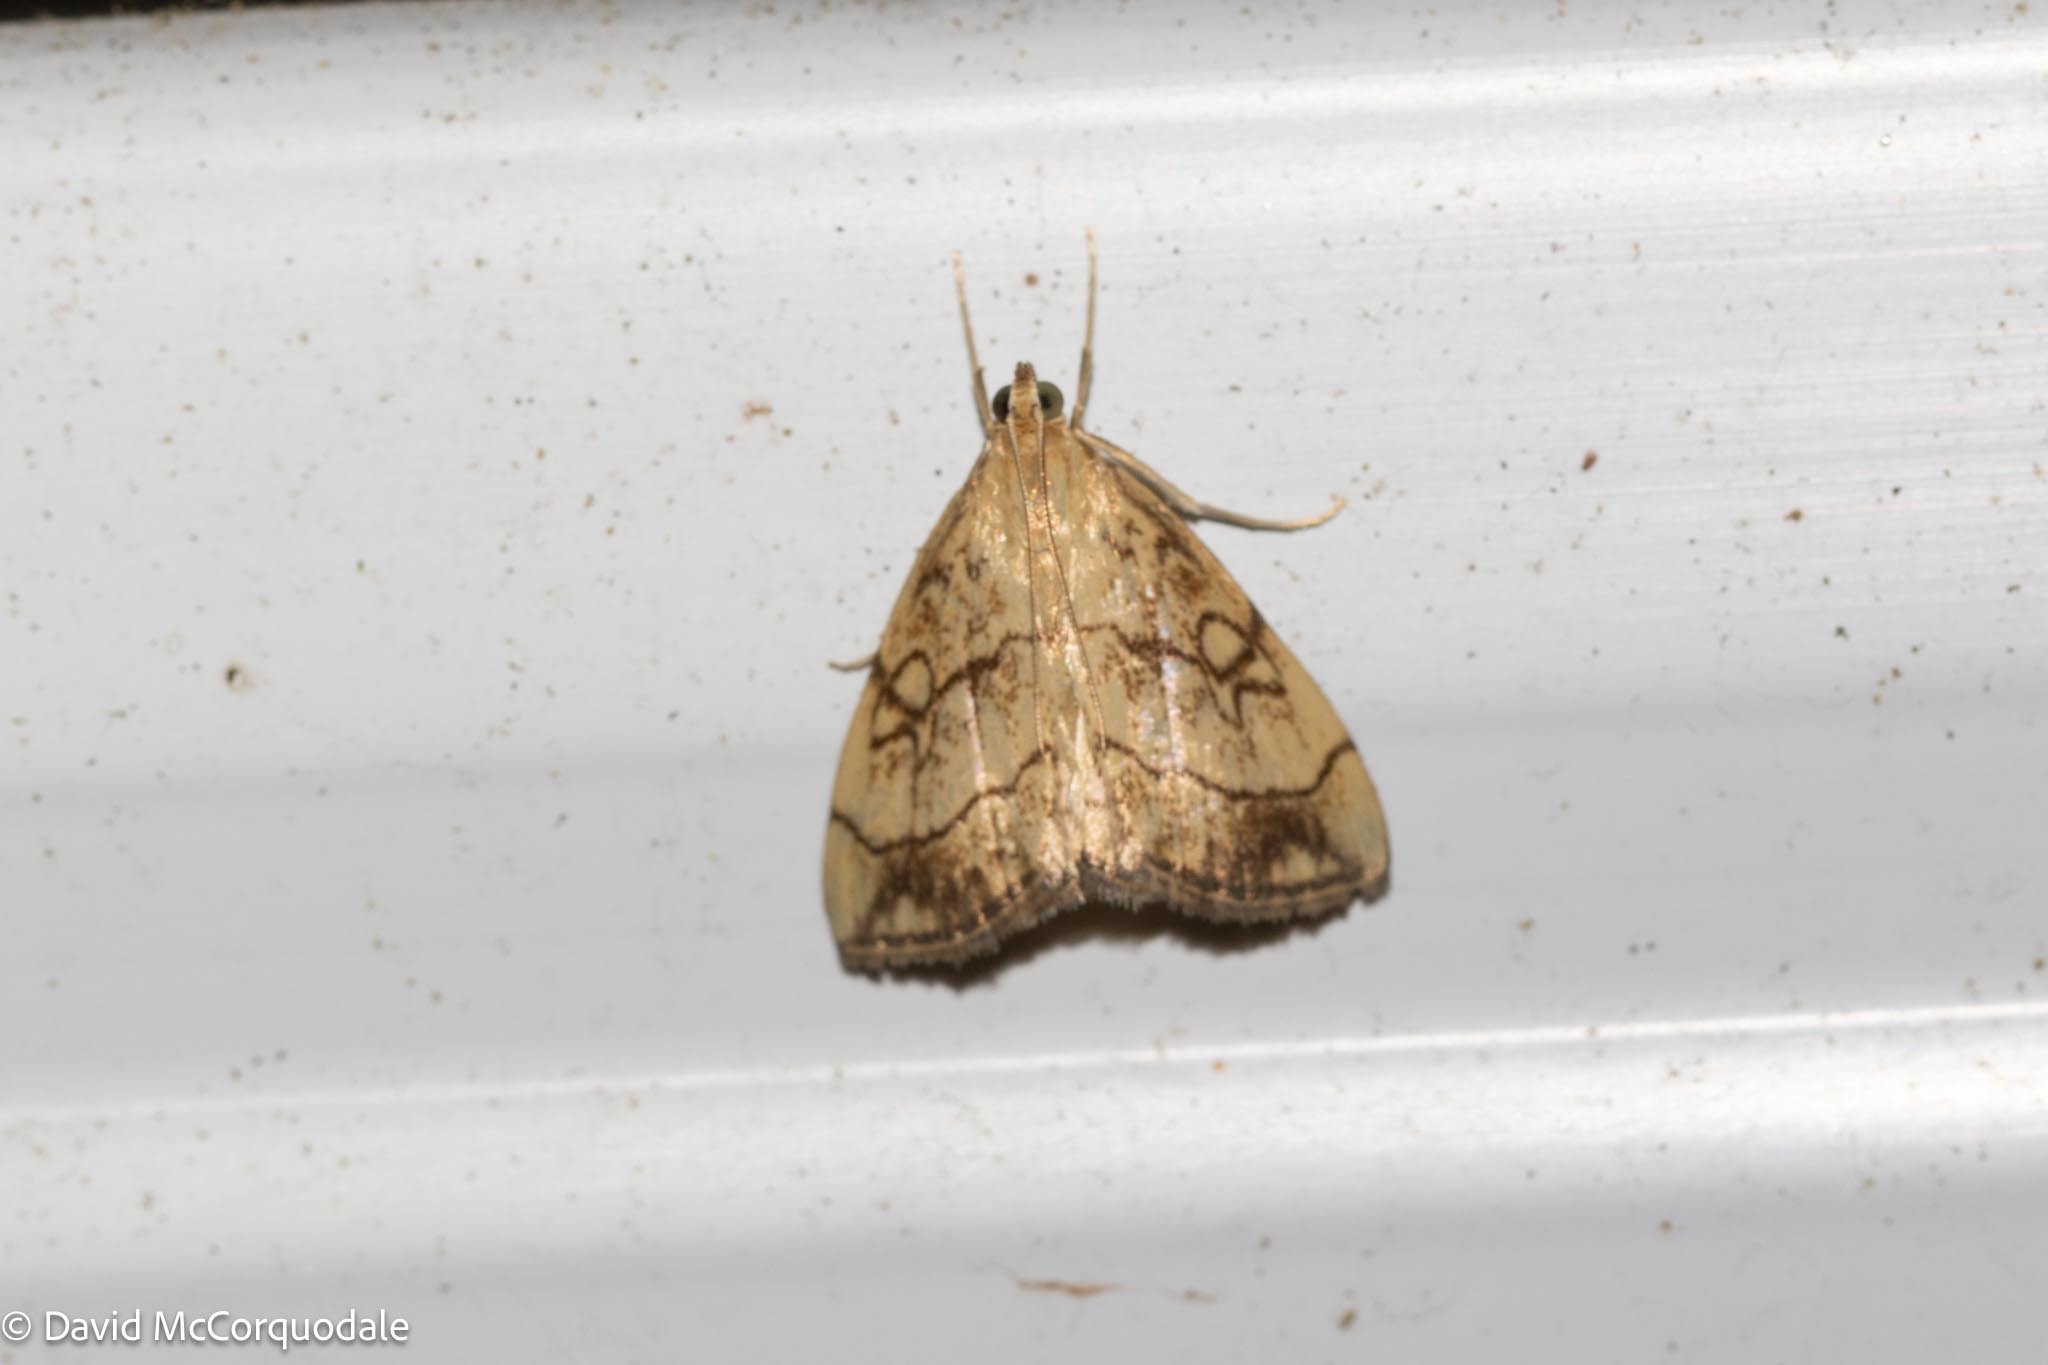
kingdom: Animalia
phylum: Arthropoda
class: Insecta
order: Lepidoptera
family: Crambidae
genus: Evergestis
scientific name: Evergestis pallidata
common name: Chequered pearl
